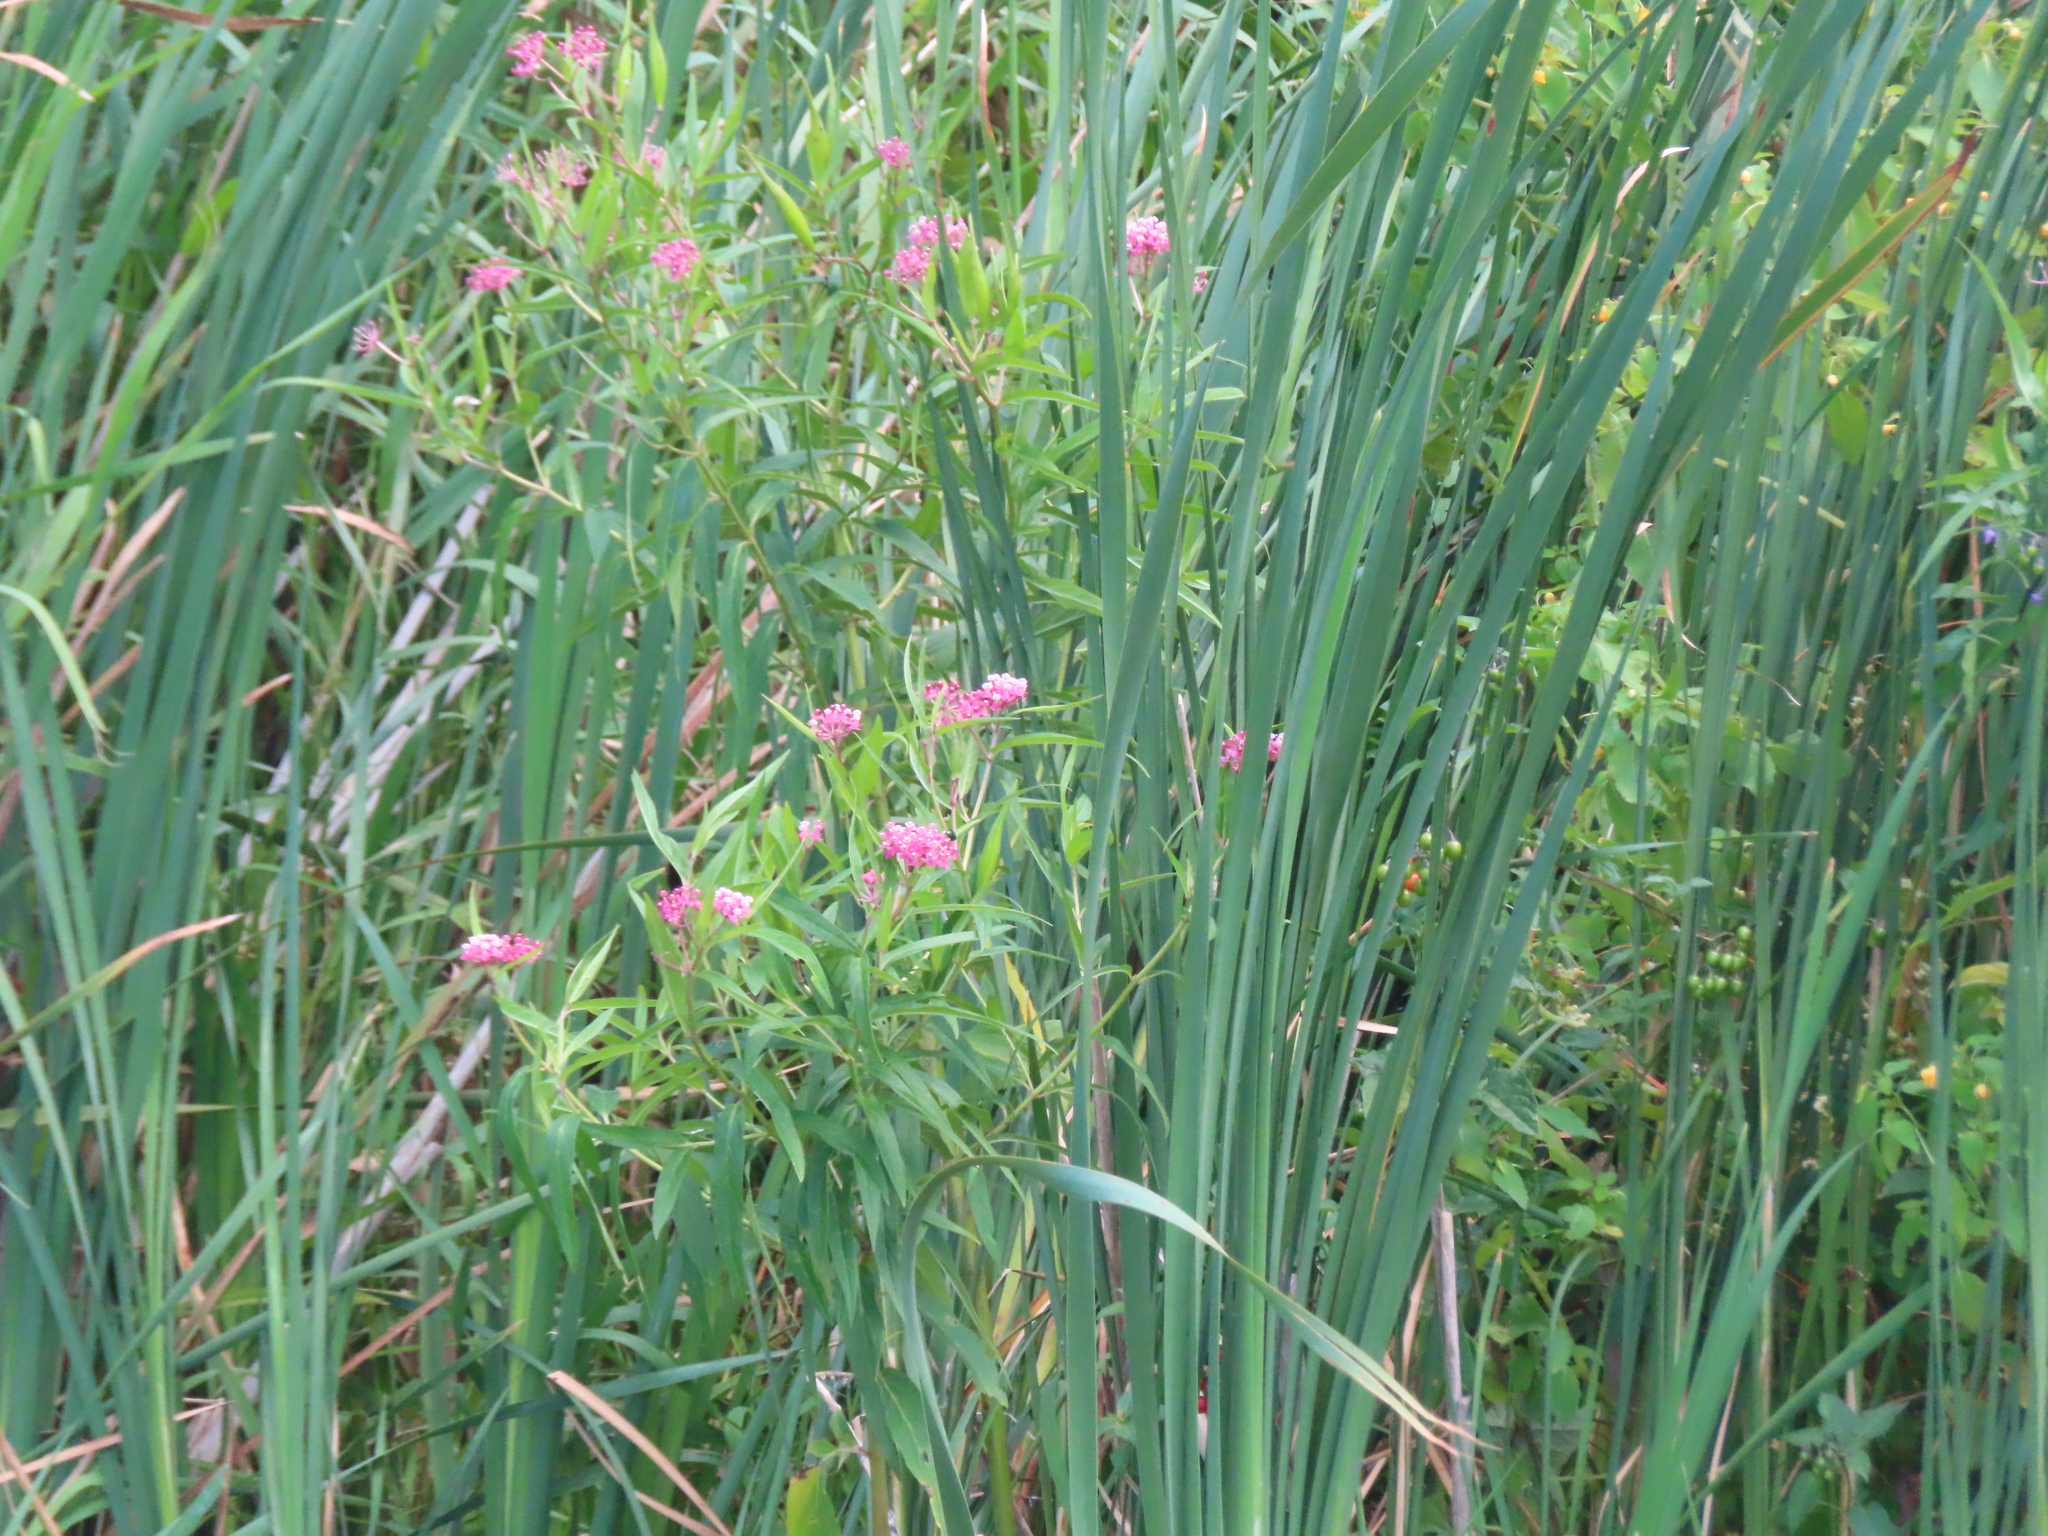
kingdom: Plantae
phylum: Tracheophyta
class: Magnoliopsida
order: Gentianales
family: Apocynaceae
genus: Asclepias
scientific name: Asclepias incarnata
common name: Swamp milkweed
